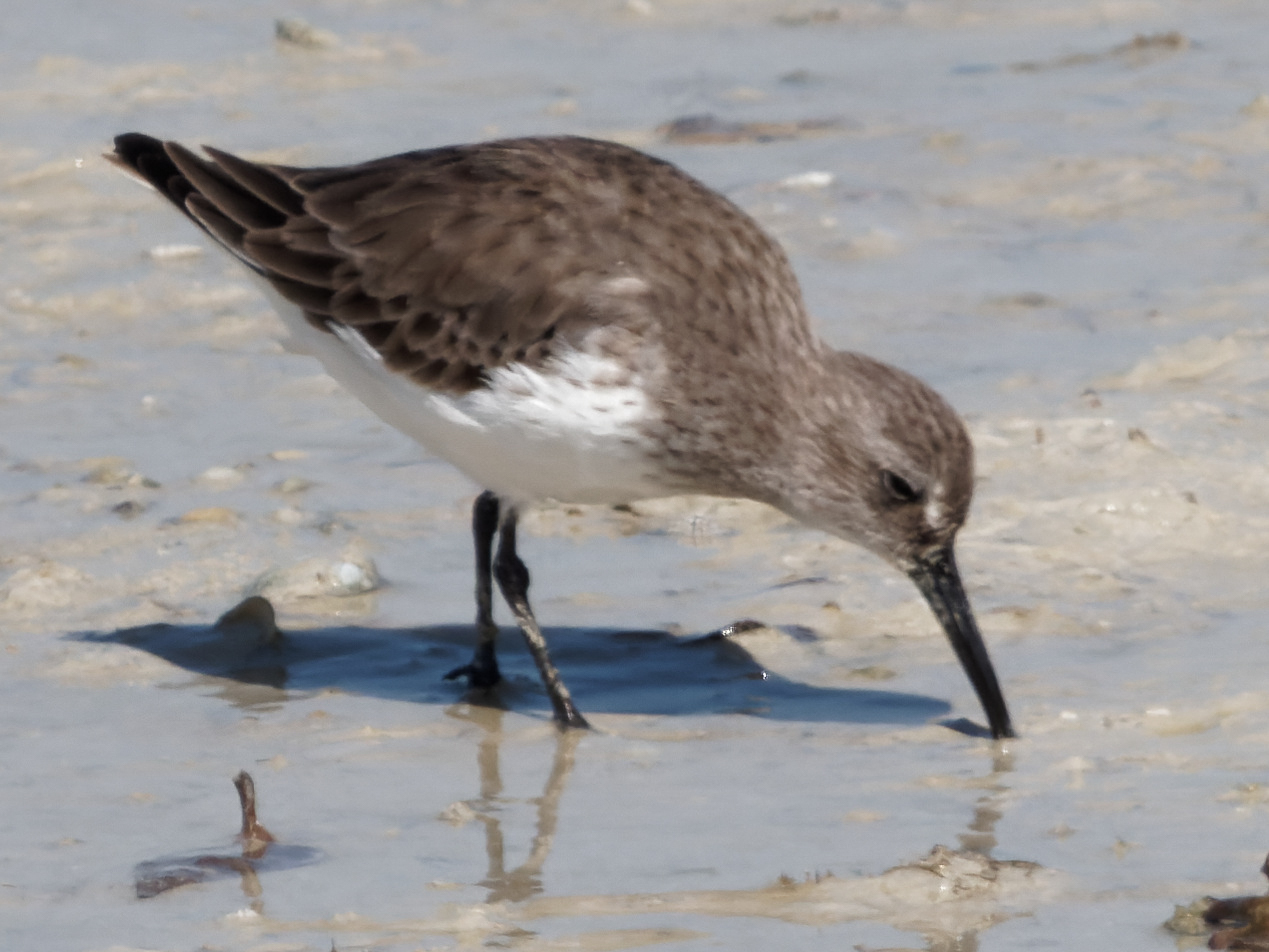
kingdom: Animalia
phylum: Chordata
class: Aves
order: Charadriiformes
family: Scolopacidae
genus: Calidris
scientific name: Calidris alpina
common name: Dunlin
